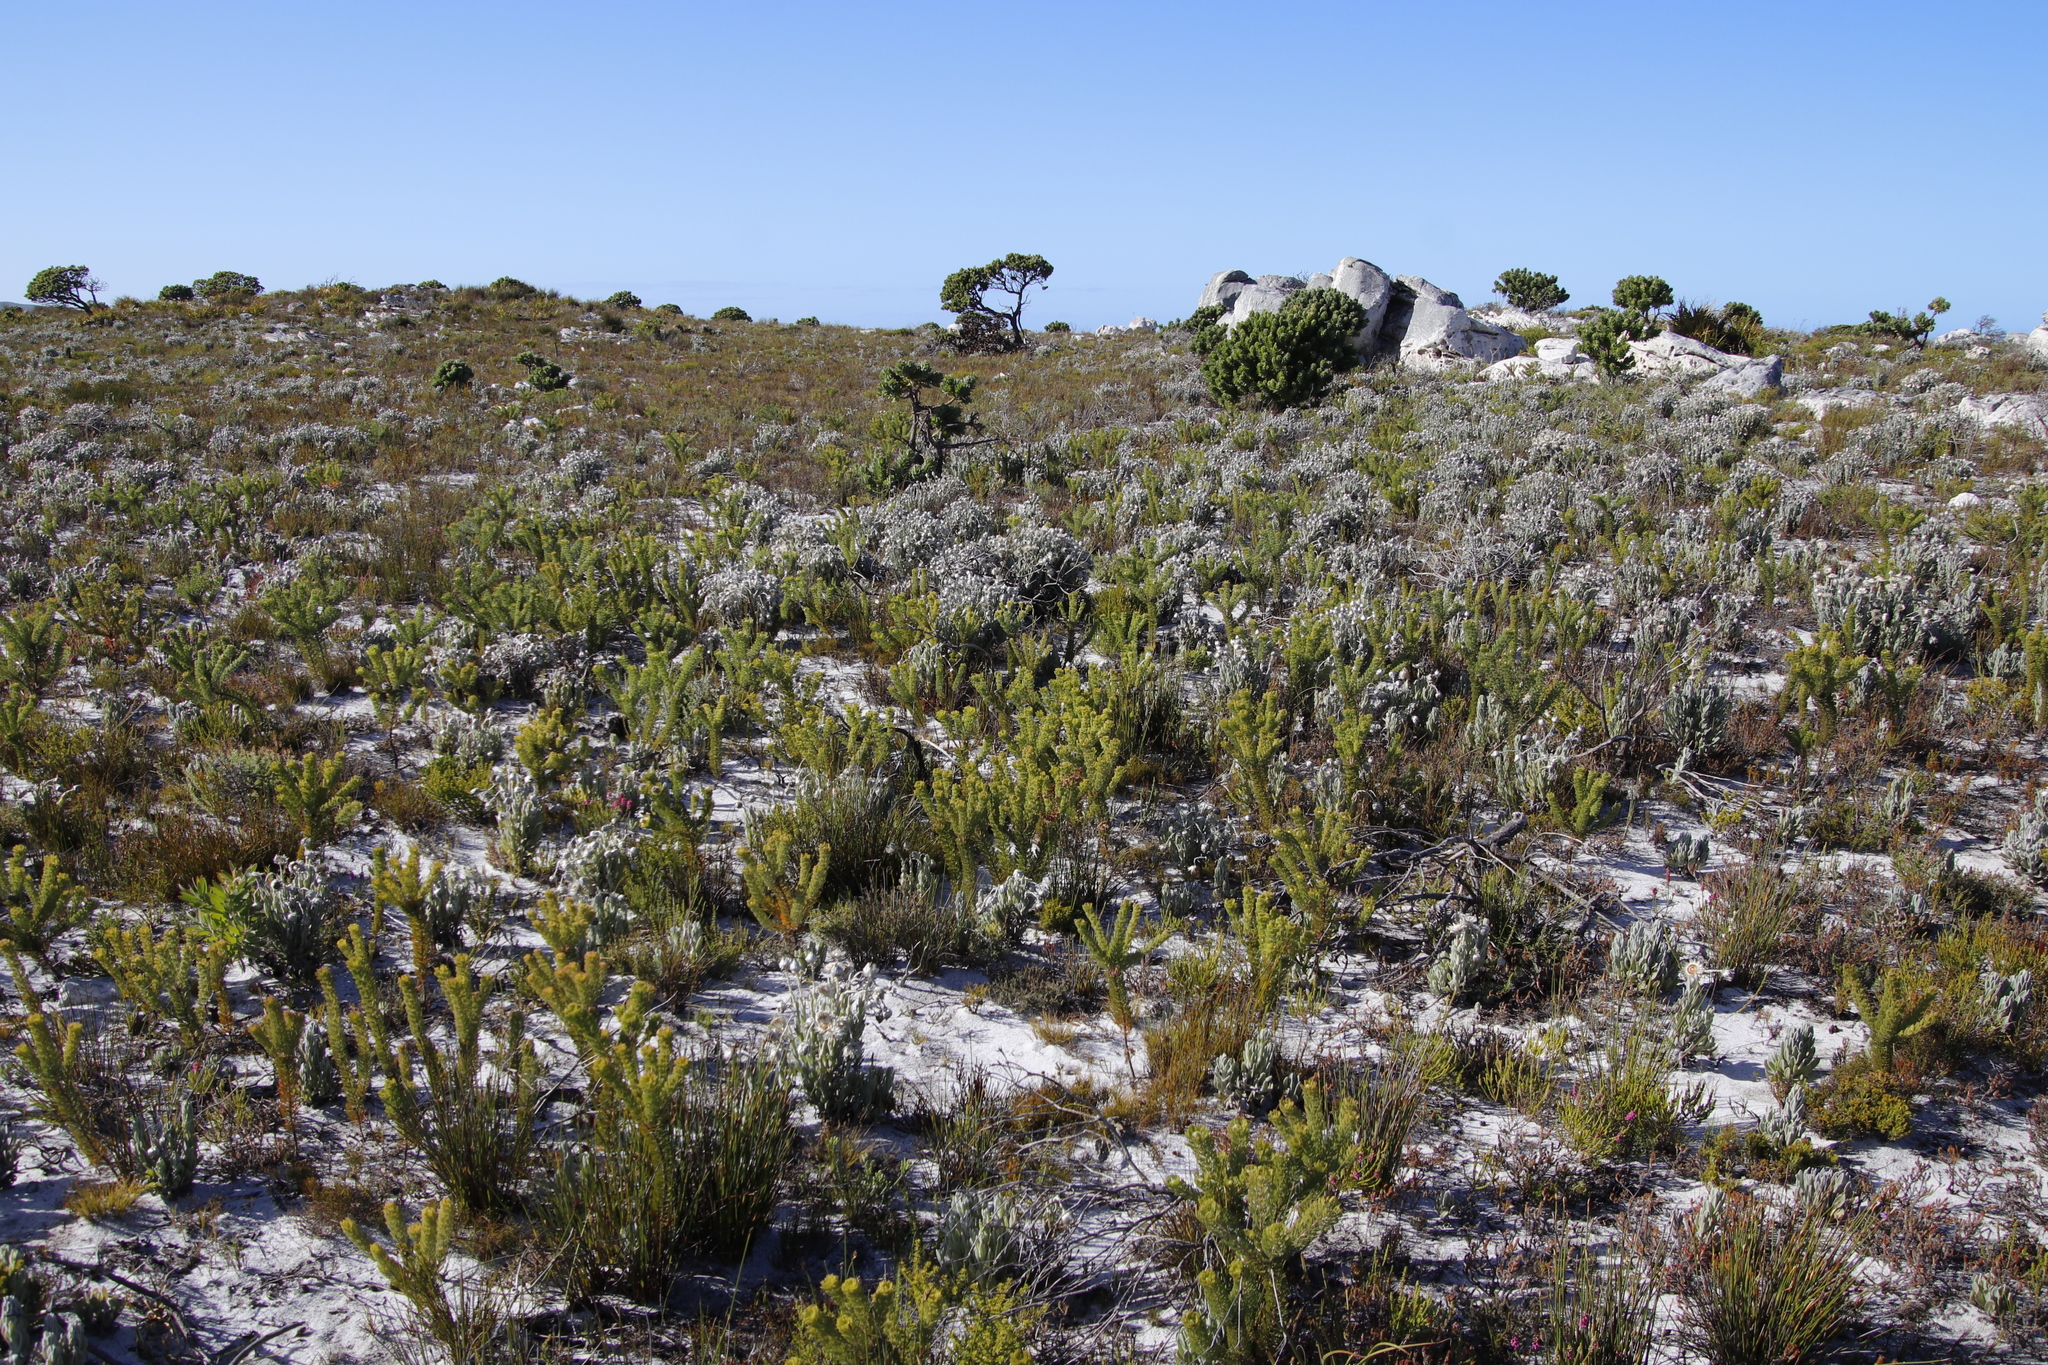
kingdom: Plantae
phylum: Tracheophyta
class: Magnoliopsida
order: Proteales
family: Proteaceae
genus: Serruria
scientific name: Serruria villosa
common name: Golden spiderhead
